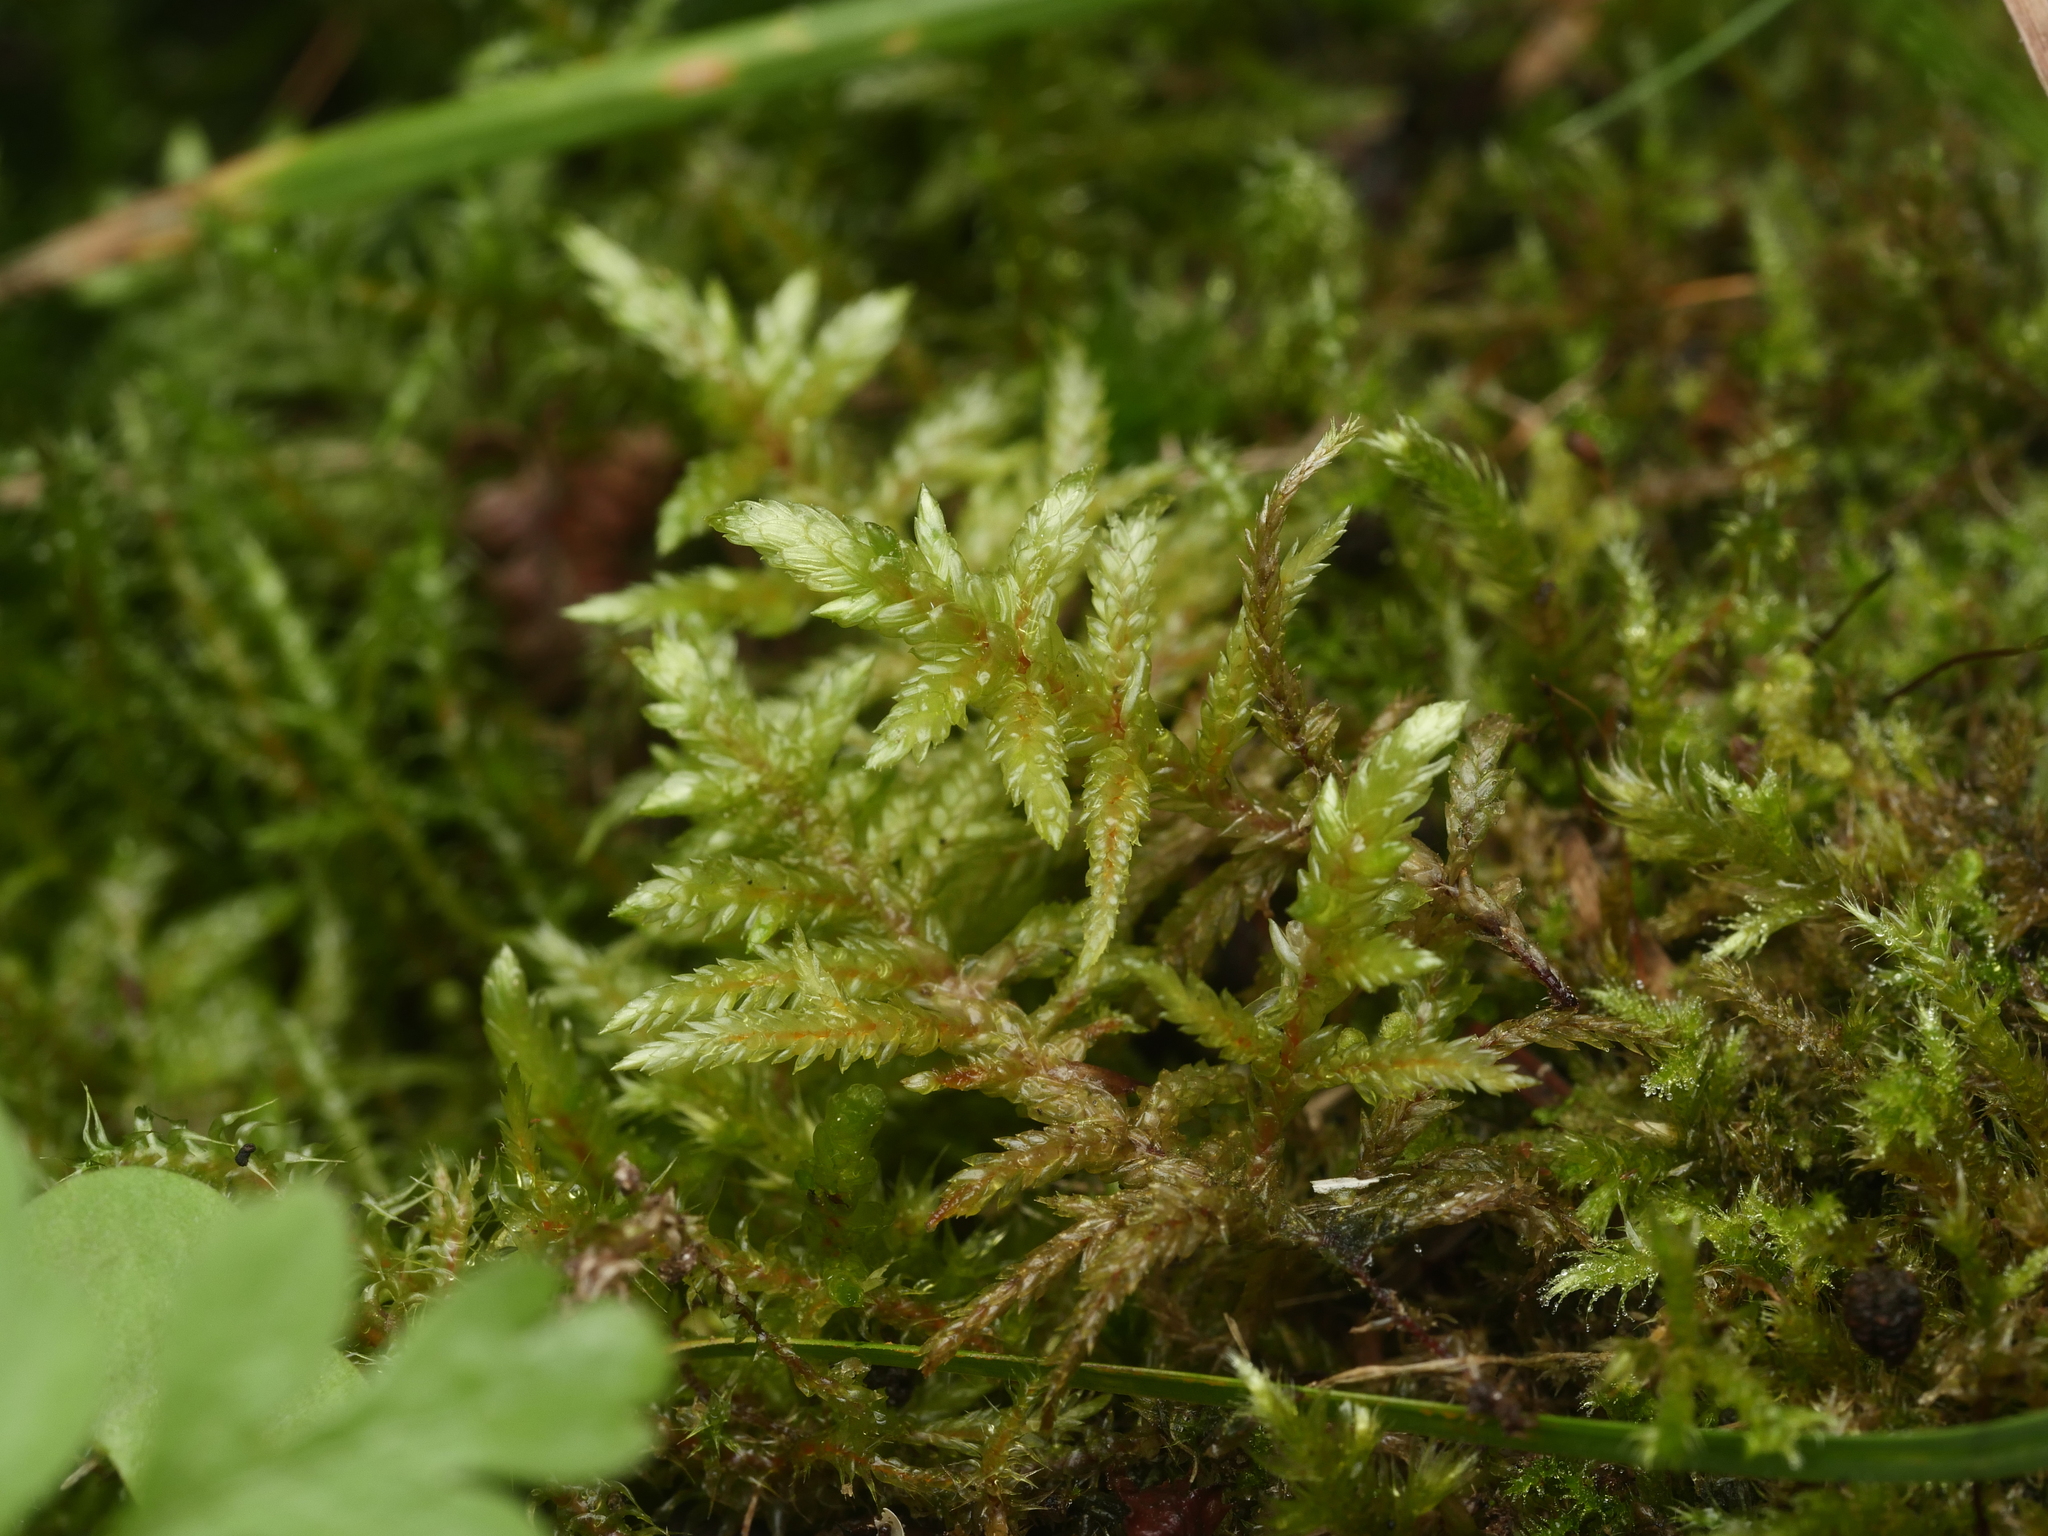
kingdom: Plantae
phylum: Bryophyta
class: Bryopsida
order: Hypnales
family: Hylocomiaceae
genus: Pleurozium
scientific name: Pleurozium schreberi
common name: Red-stemmed feather moss
